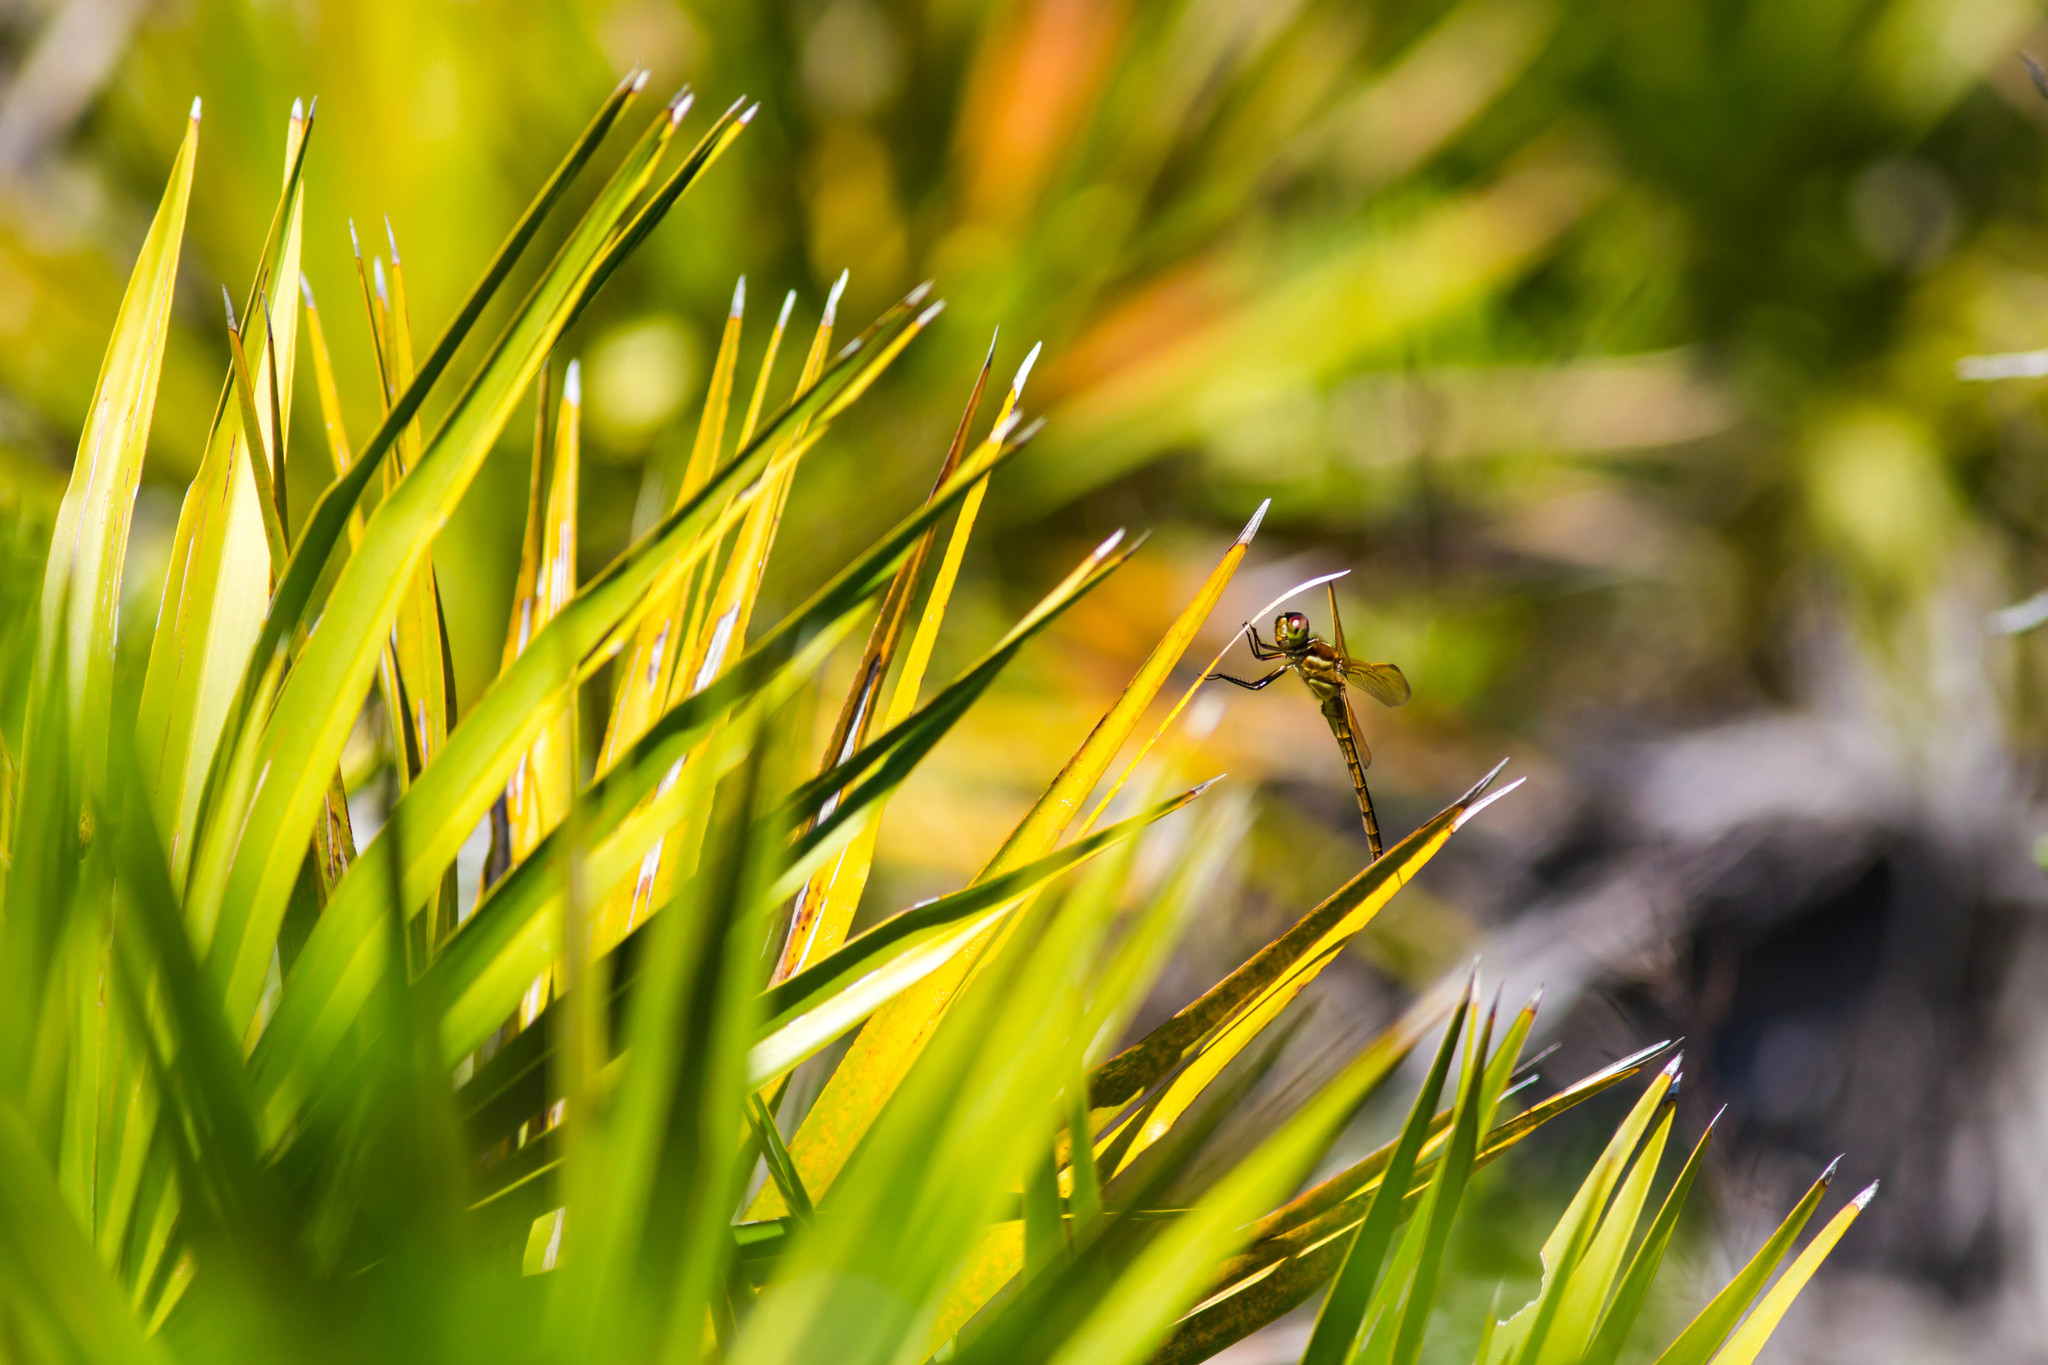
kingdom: Animalia
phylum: Arthropoda
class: Insecta
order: Odonata
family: Libellulidae
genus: Libellula
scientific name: Libellula auripennis
